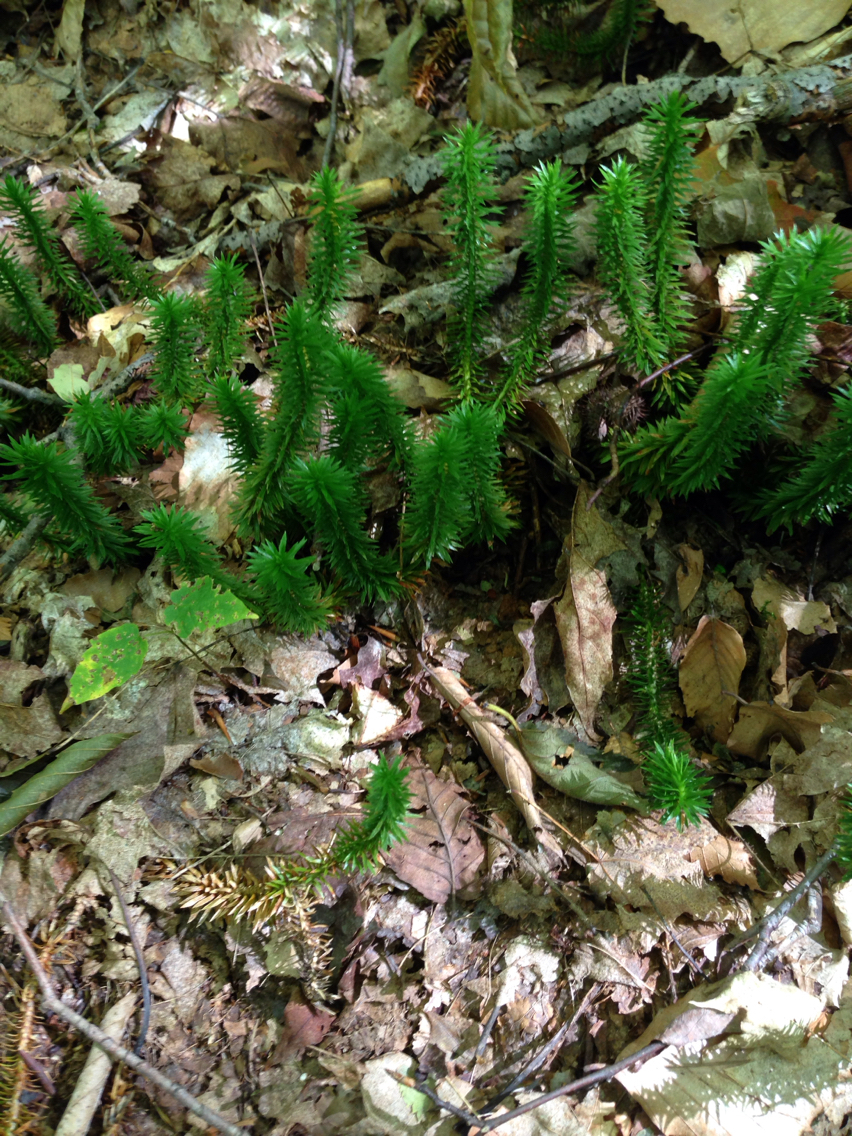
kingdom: Plantae
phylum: Tracheophyta
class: Lycopodiopsida
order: Lycopodiales
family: Lycopodiaceae
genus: Huperzia
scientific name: Huperzia lucidula
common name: Shining clubmoss
